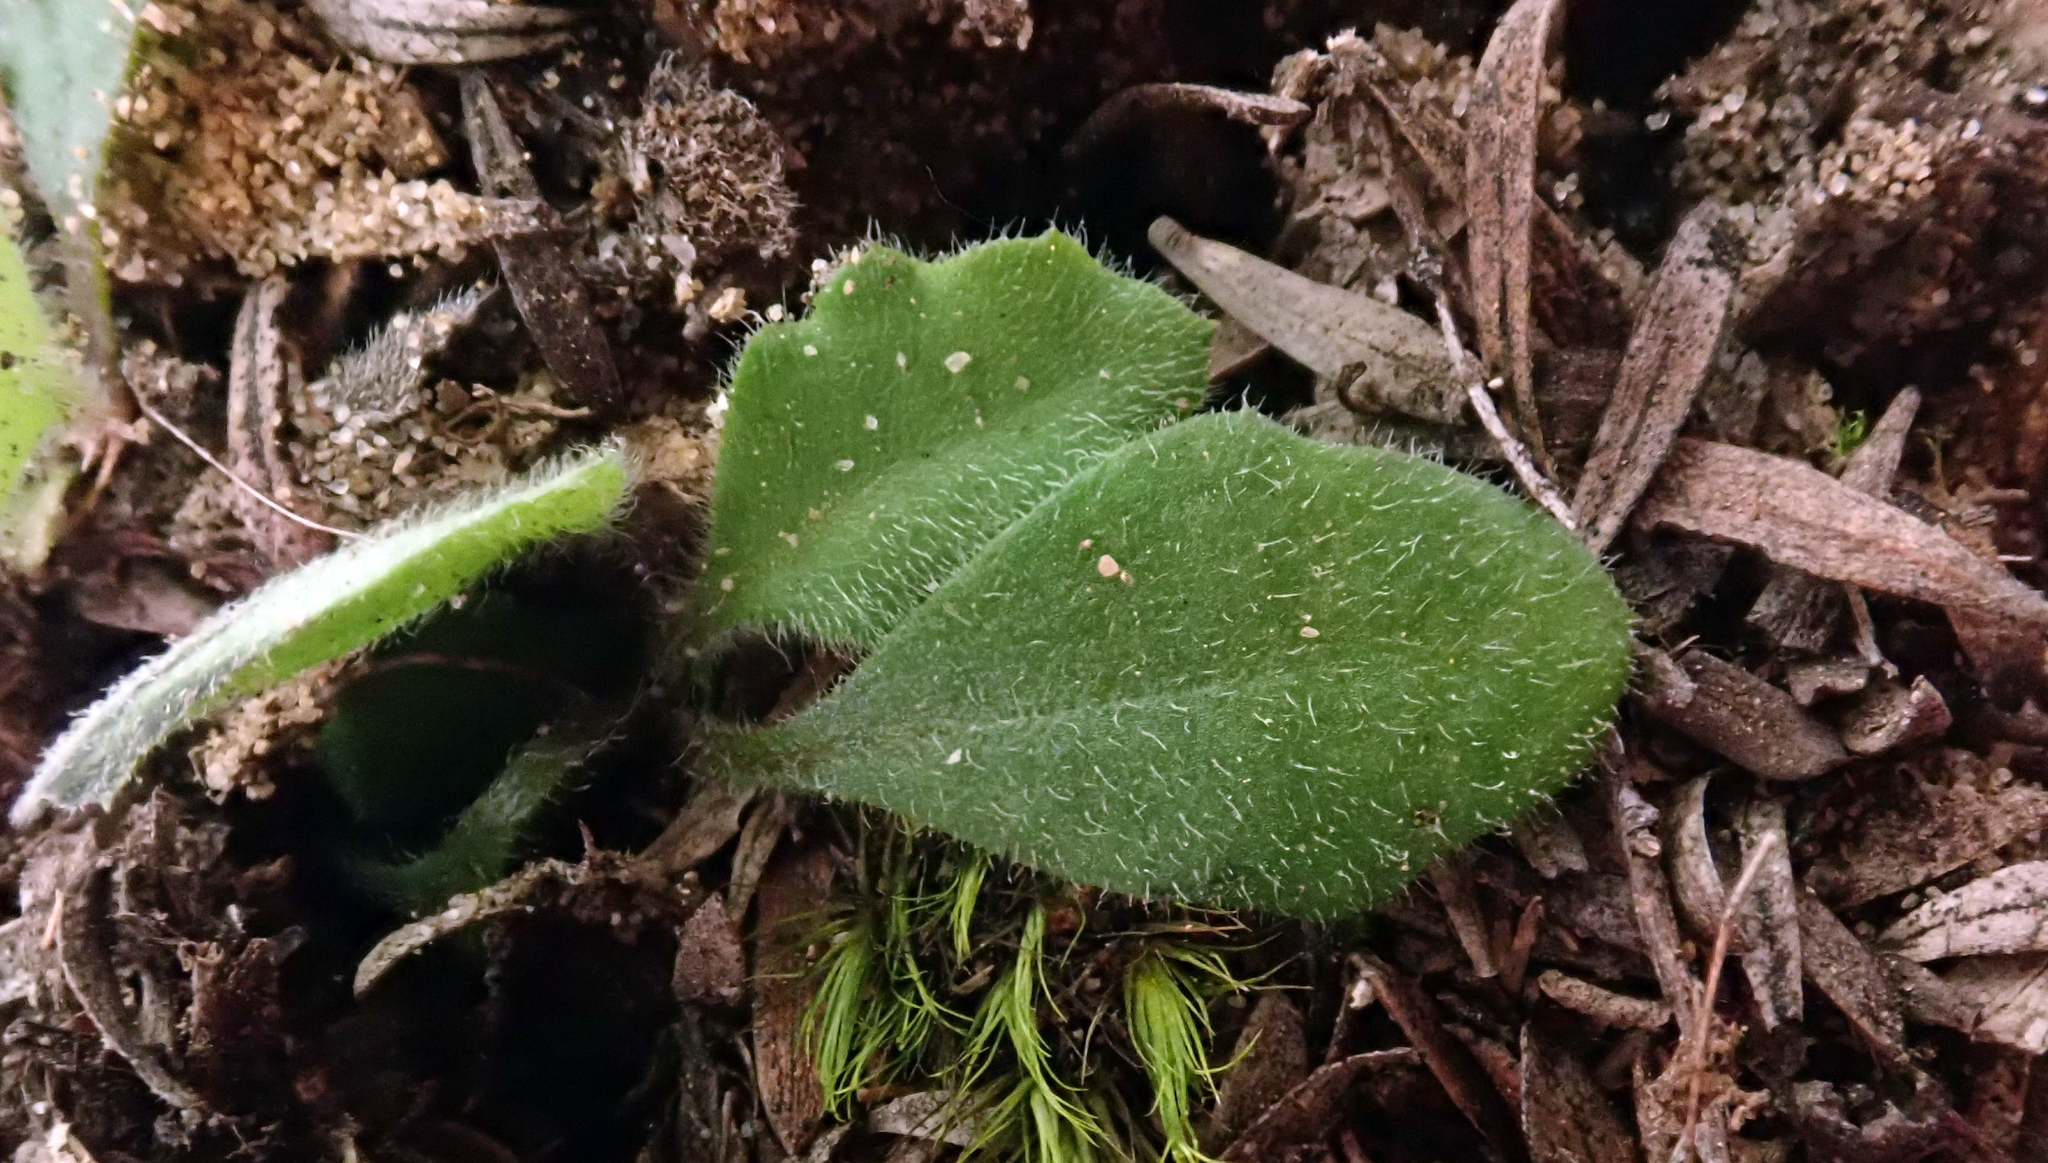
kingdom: Plantae
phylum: Tracheophyta
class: Magnoliopsida
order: Asterales
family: Asteraceae
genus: Lagenophora
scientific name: Lagenophora stipitata
